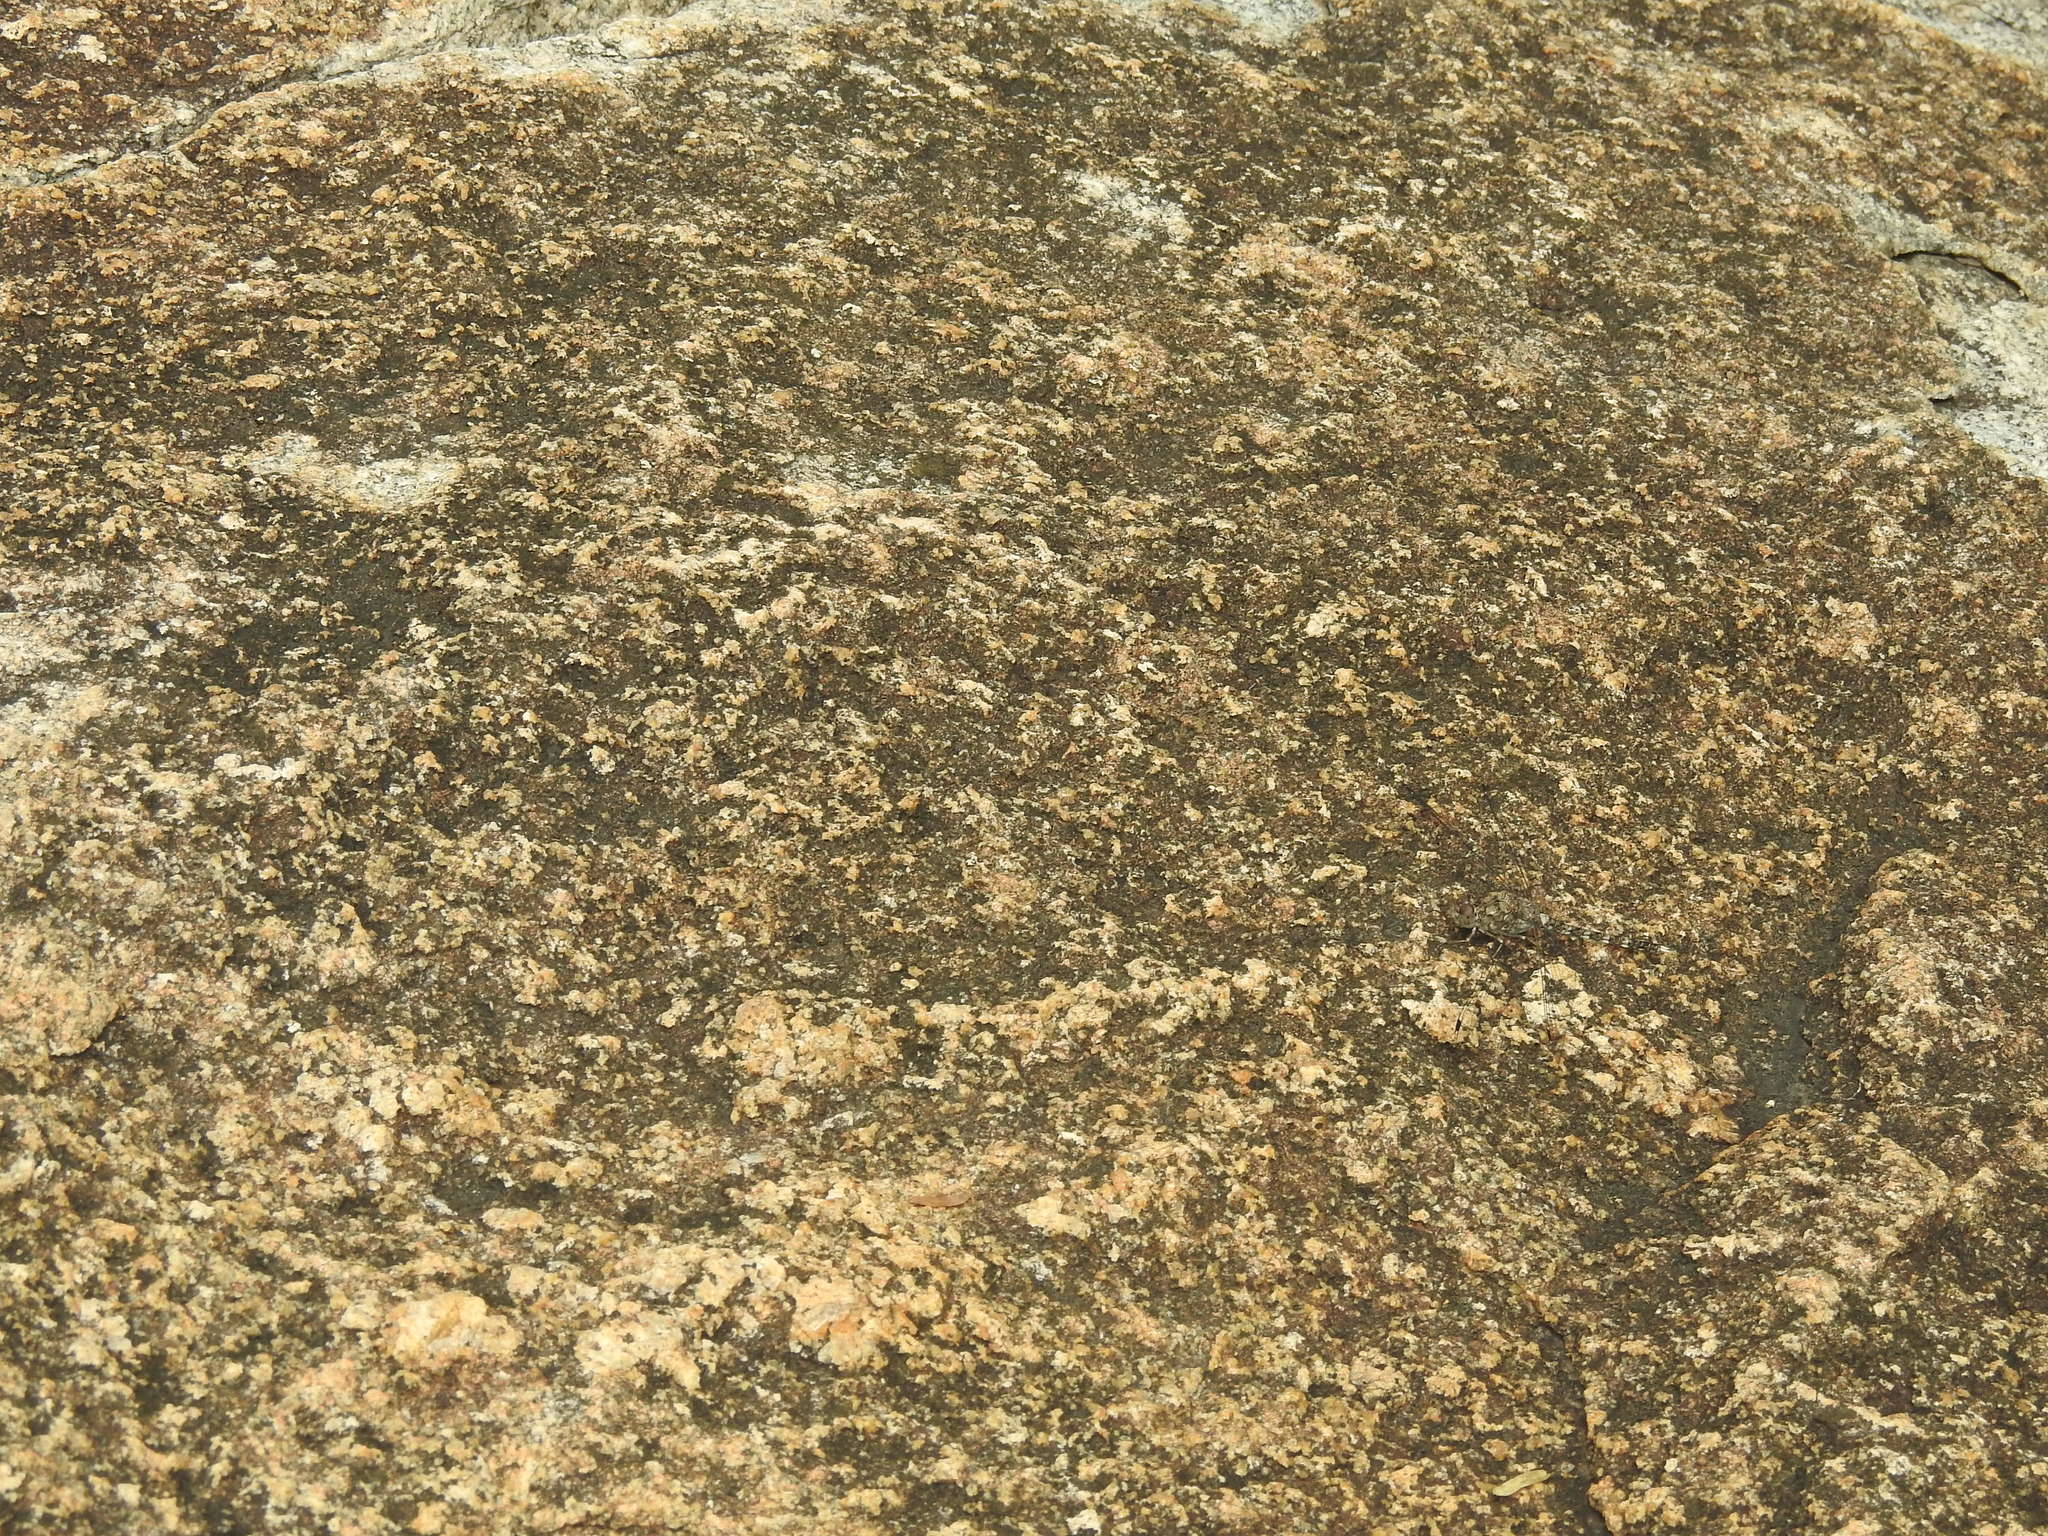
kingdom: Animalia
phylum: Arthropoda
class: Insecta
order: Odonata
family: Libellulidae
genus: Bradinopyga
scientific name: Bradinopyga geminata
